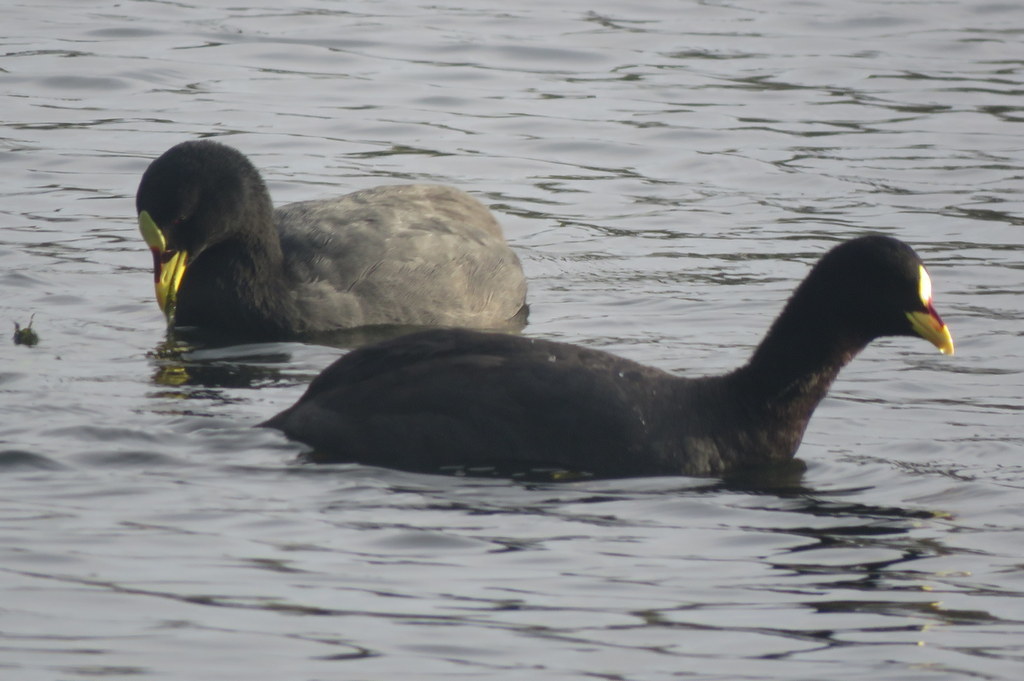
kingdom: Animalia
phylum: Chordata
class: Aves
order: Gruiformes
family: Rallidae
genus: Fulica
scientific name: Fulica armillata
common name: Red-gartered coot
